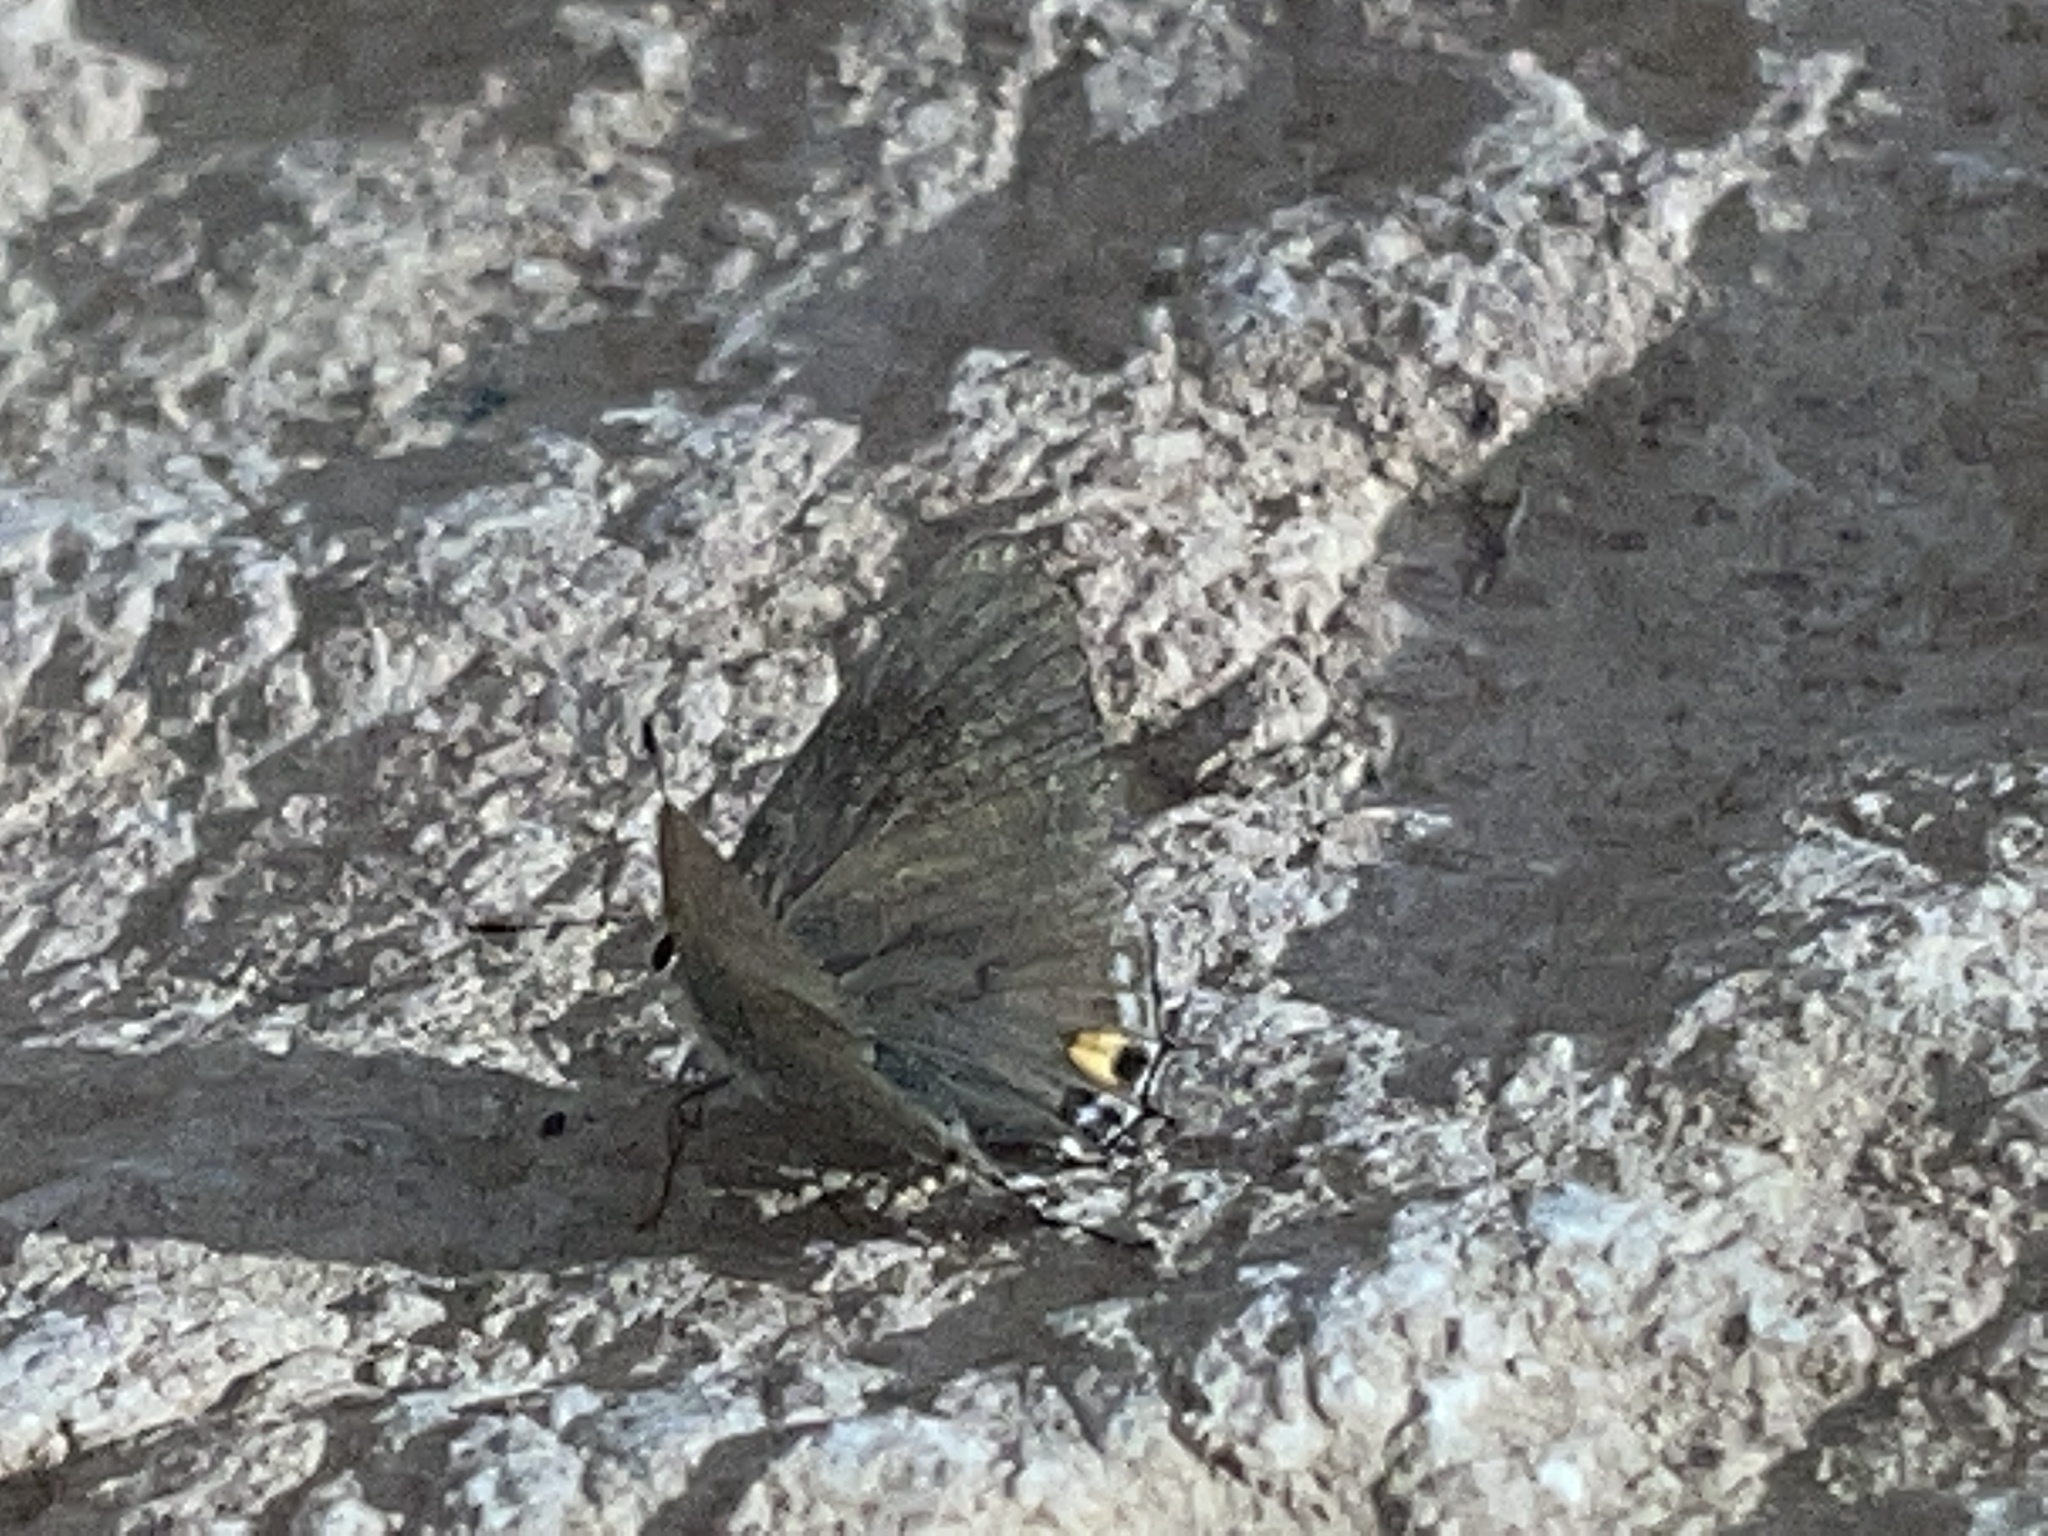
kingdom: Animalia
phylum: Arthropoda
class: Insecta
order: Lepidoptera
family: Lycaenidae
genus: Strymon
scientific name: Strymon melinus
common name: Gray hairstreak
